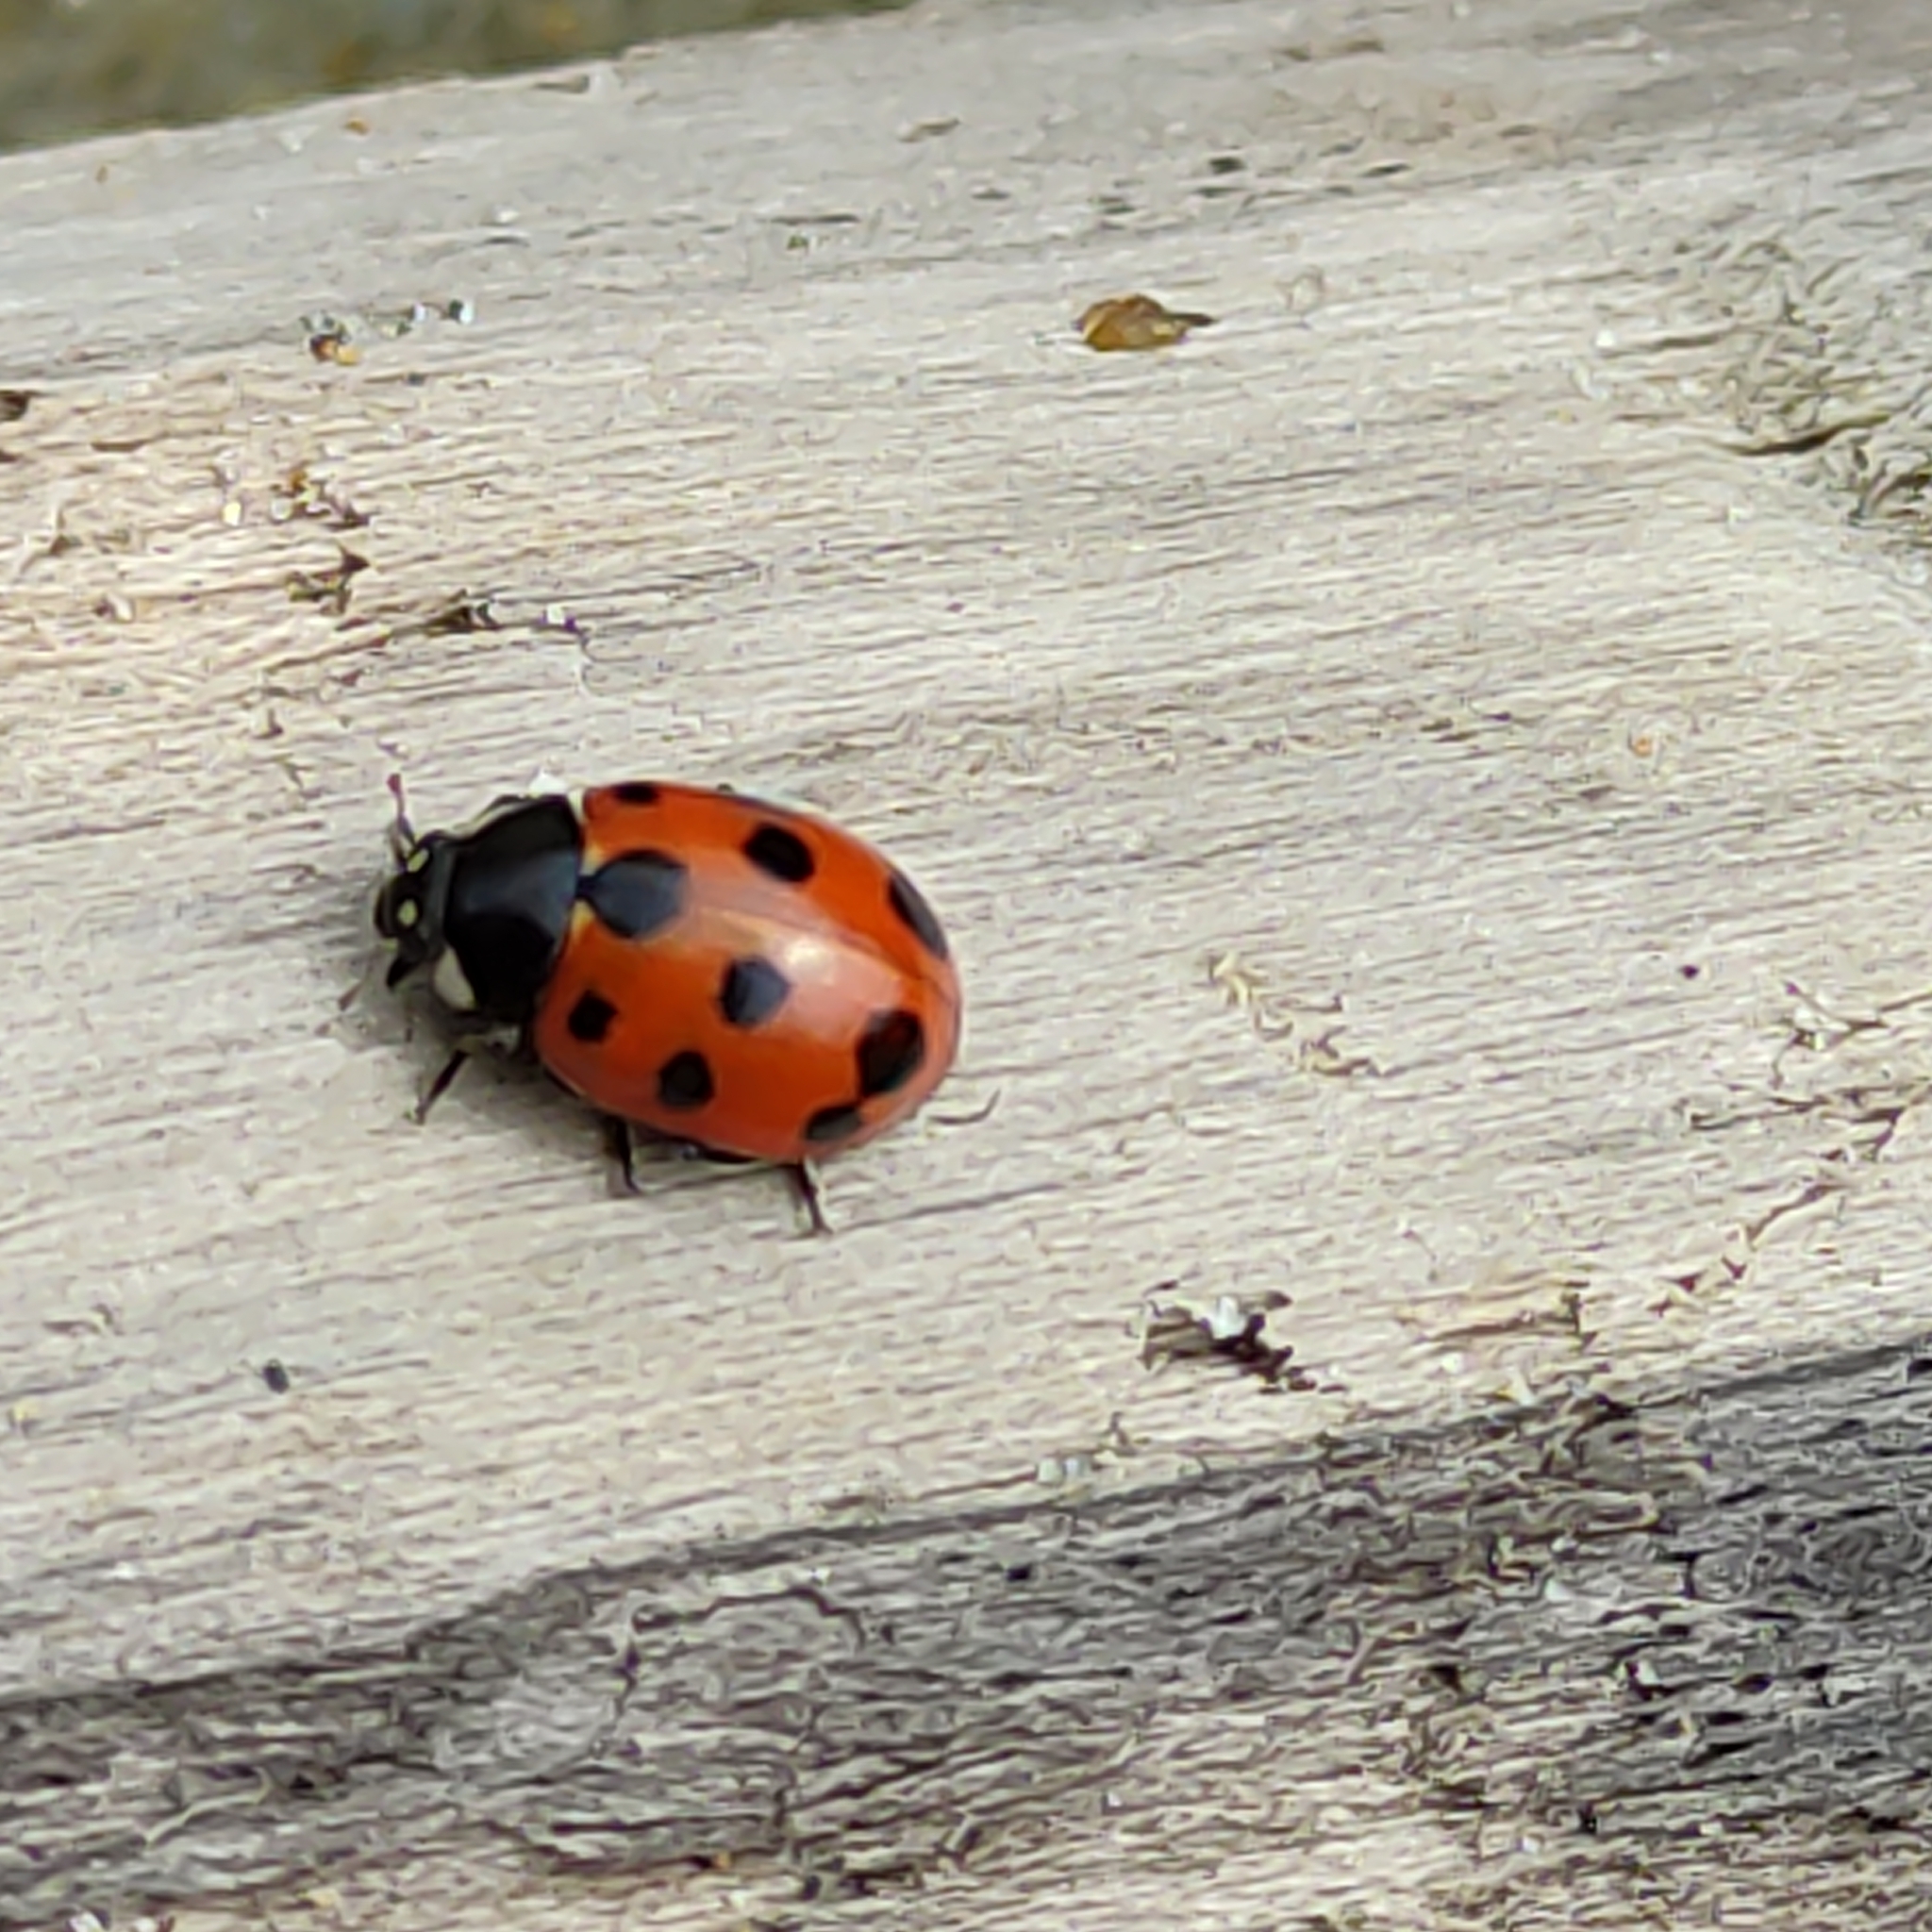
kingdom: Animalia
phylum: Arthropoda
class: Insecta
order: Coleoptera
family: Coccinellidae
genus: Coccinella
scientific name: Coccinella undecimpunctata
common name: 11-spot ladybird
